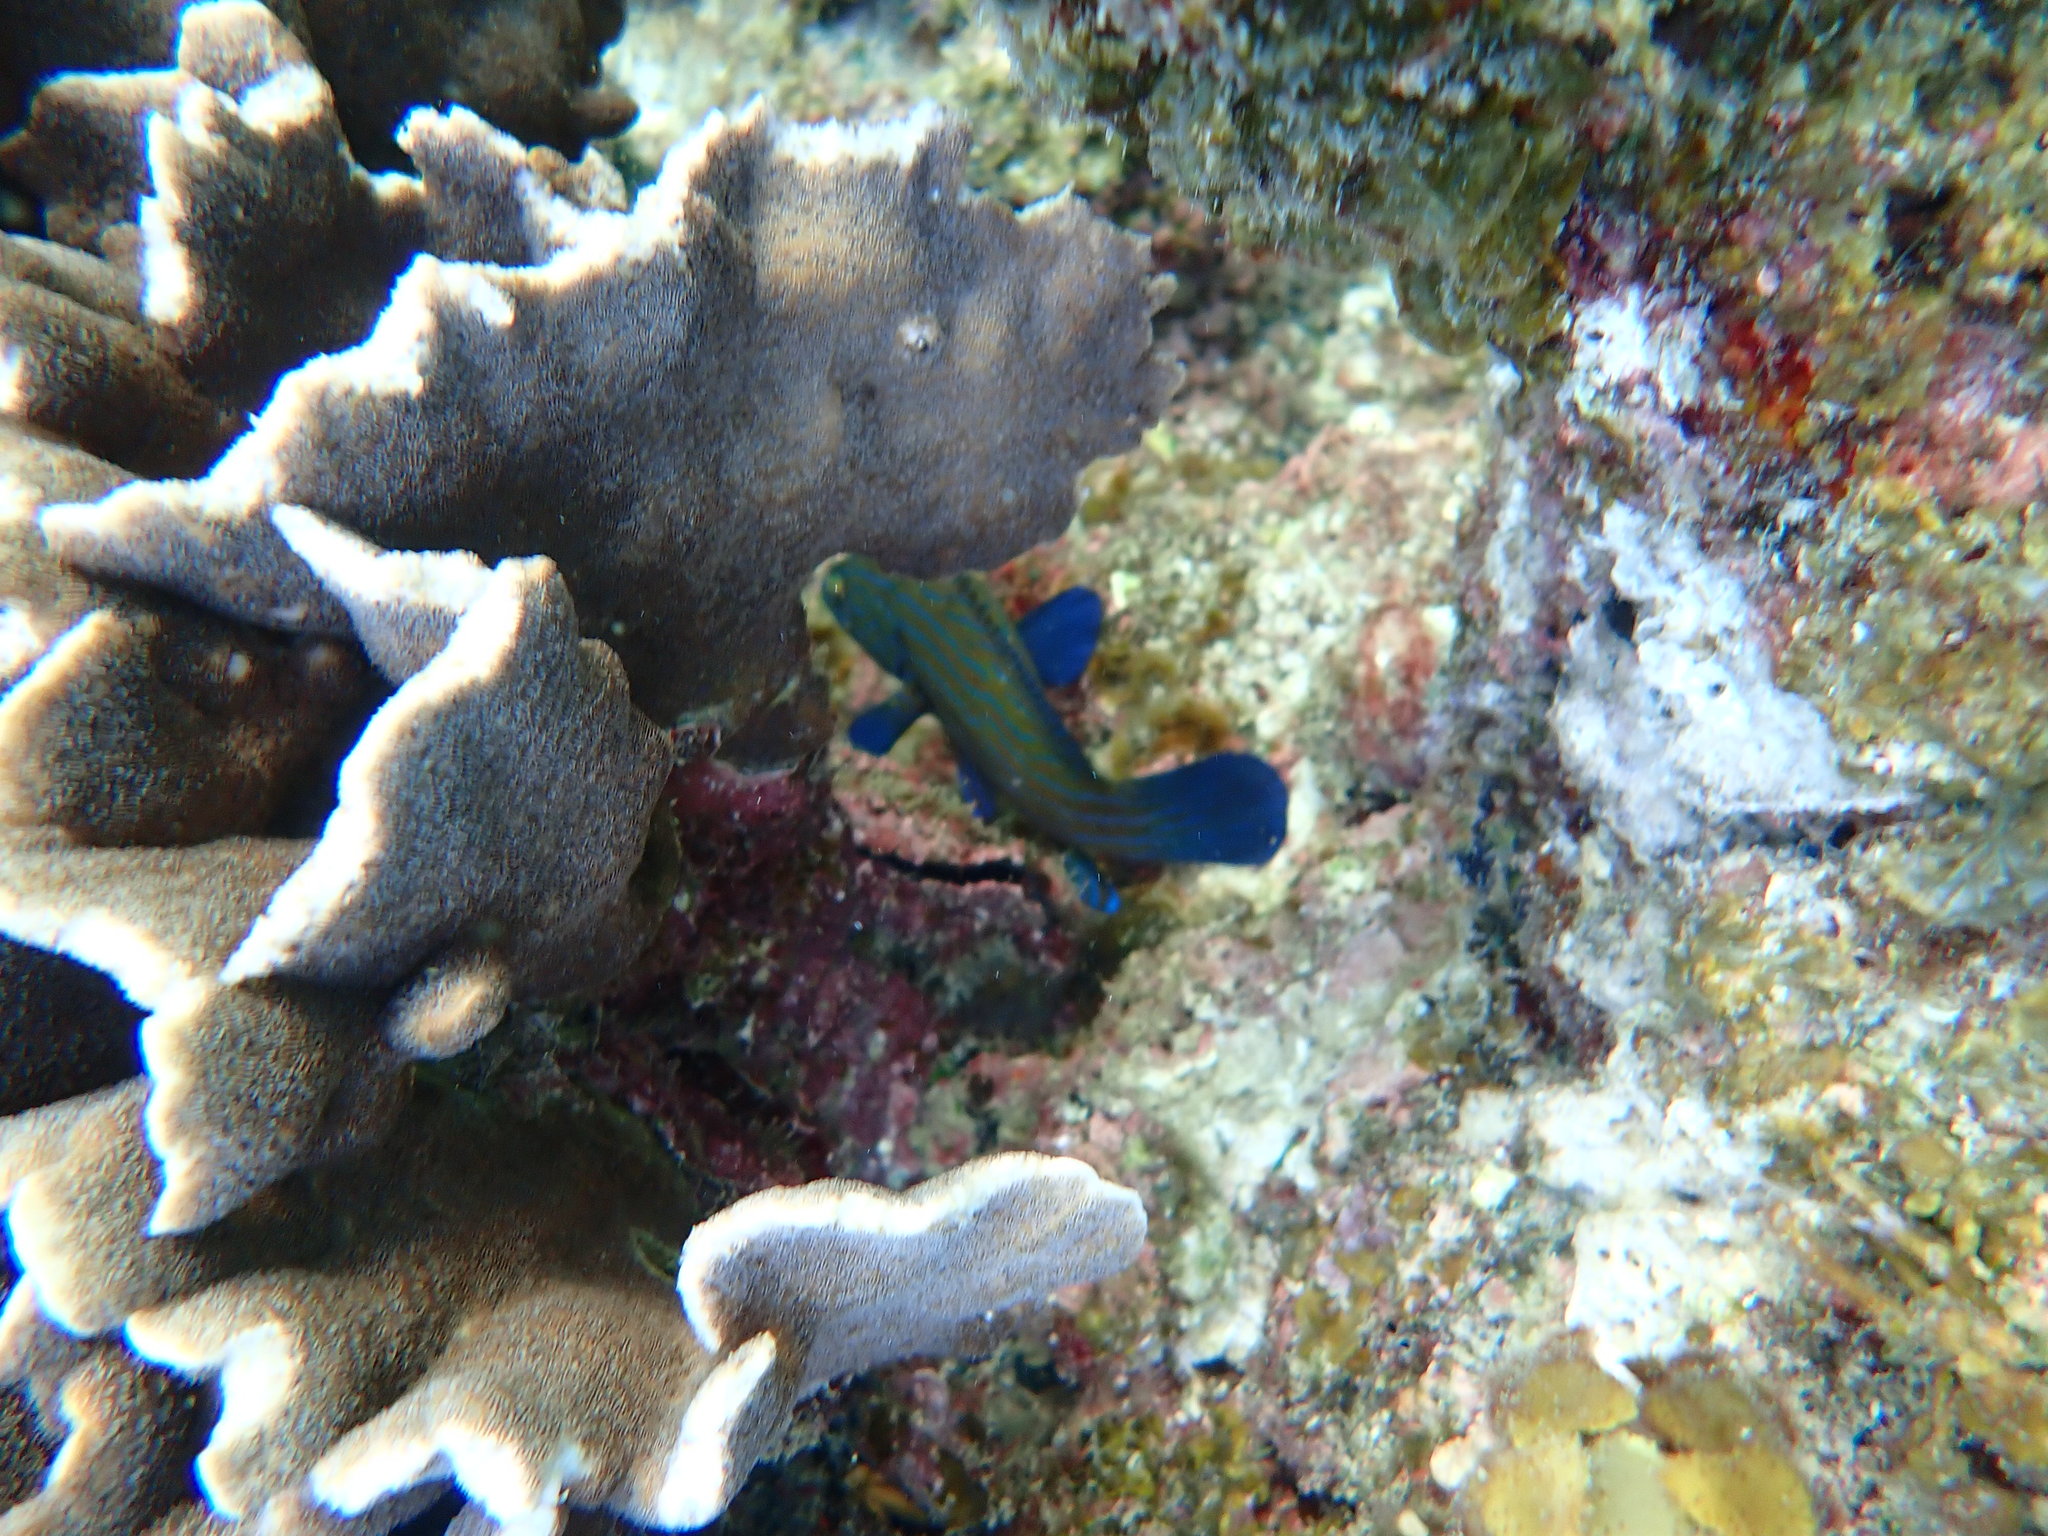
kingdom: Animalia
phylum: Chordata
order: Perciformes
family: Serranidae
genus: Cephalopholis
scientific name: Cephalopholis formosa
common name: Bluelined hind
